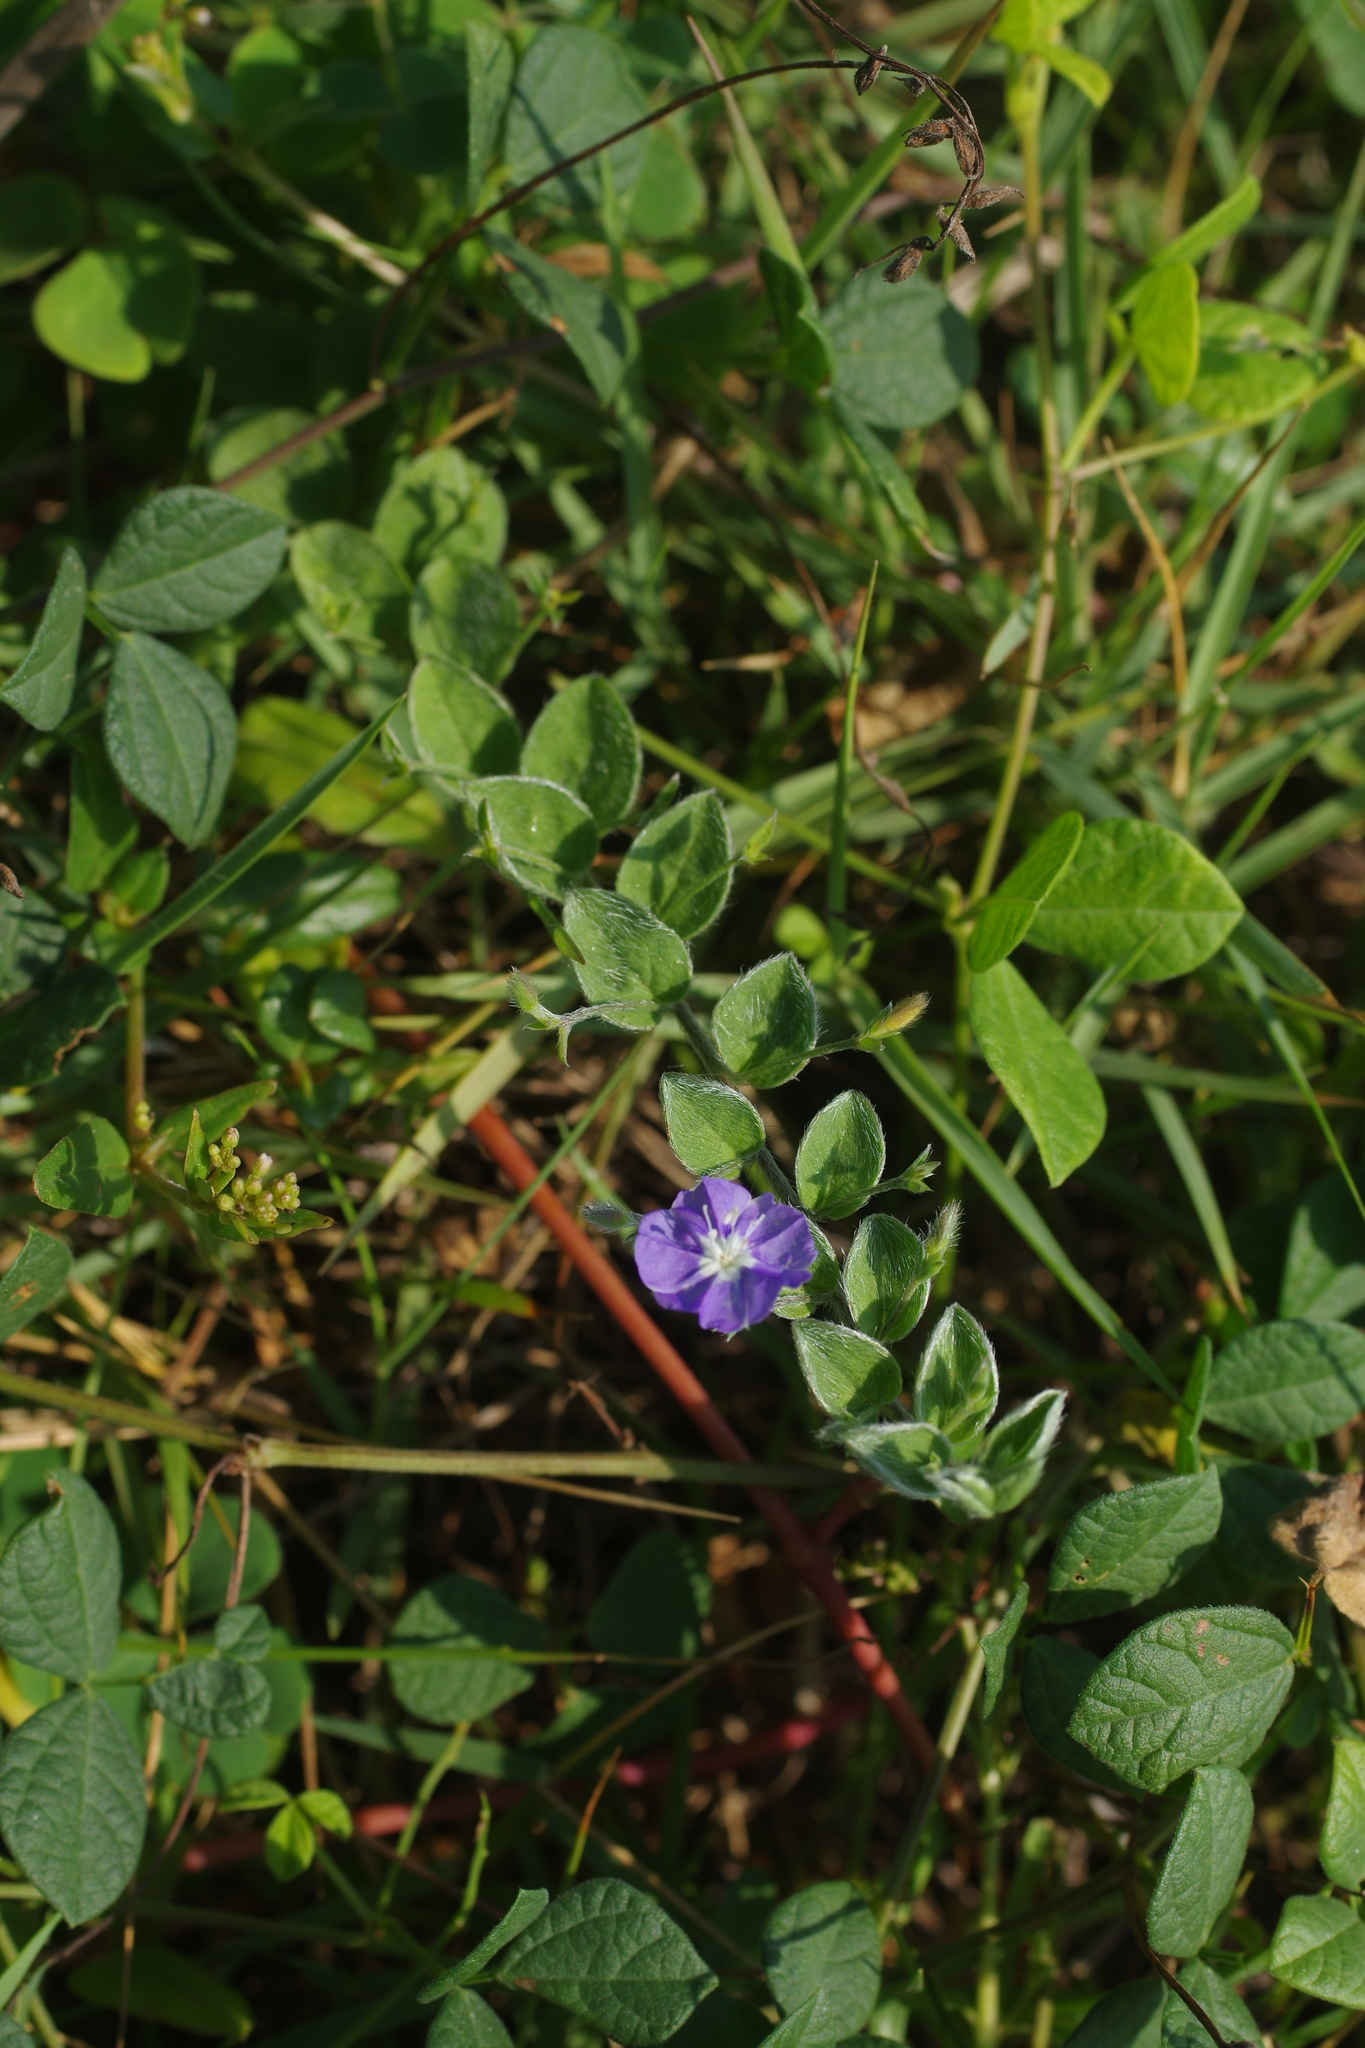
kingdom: Plantae
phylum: Tracheophyta
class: Magnoliopsida
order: Solanales
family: Convolvulaceae
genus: Evolvulus
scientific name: Evolvulus alsinoides
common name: Slender dwarf morning-glory
